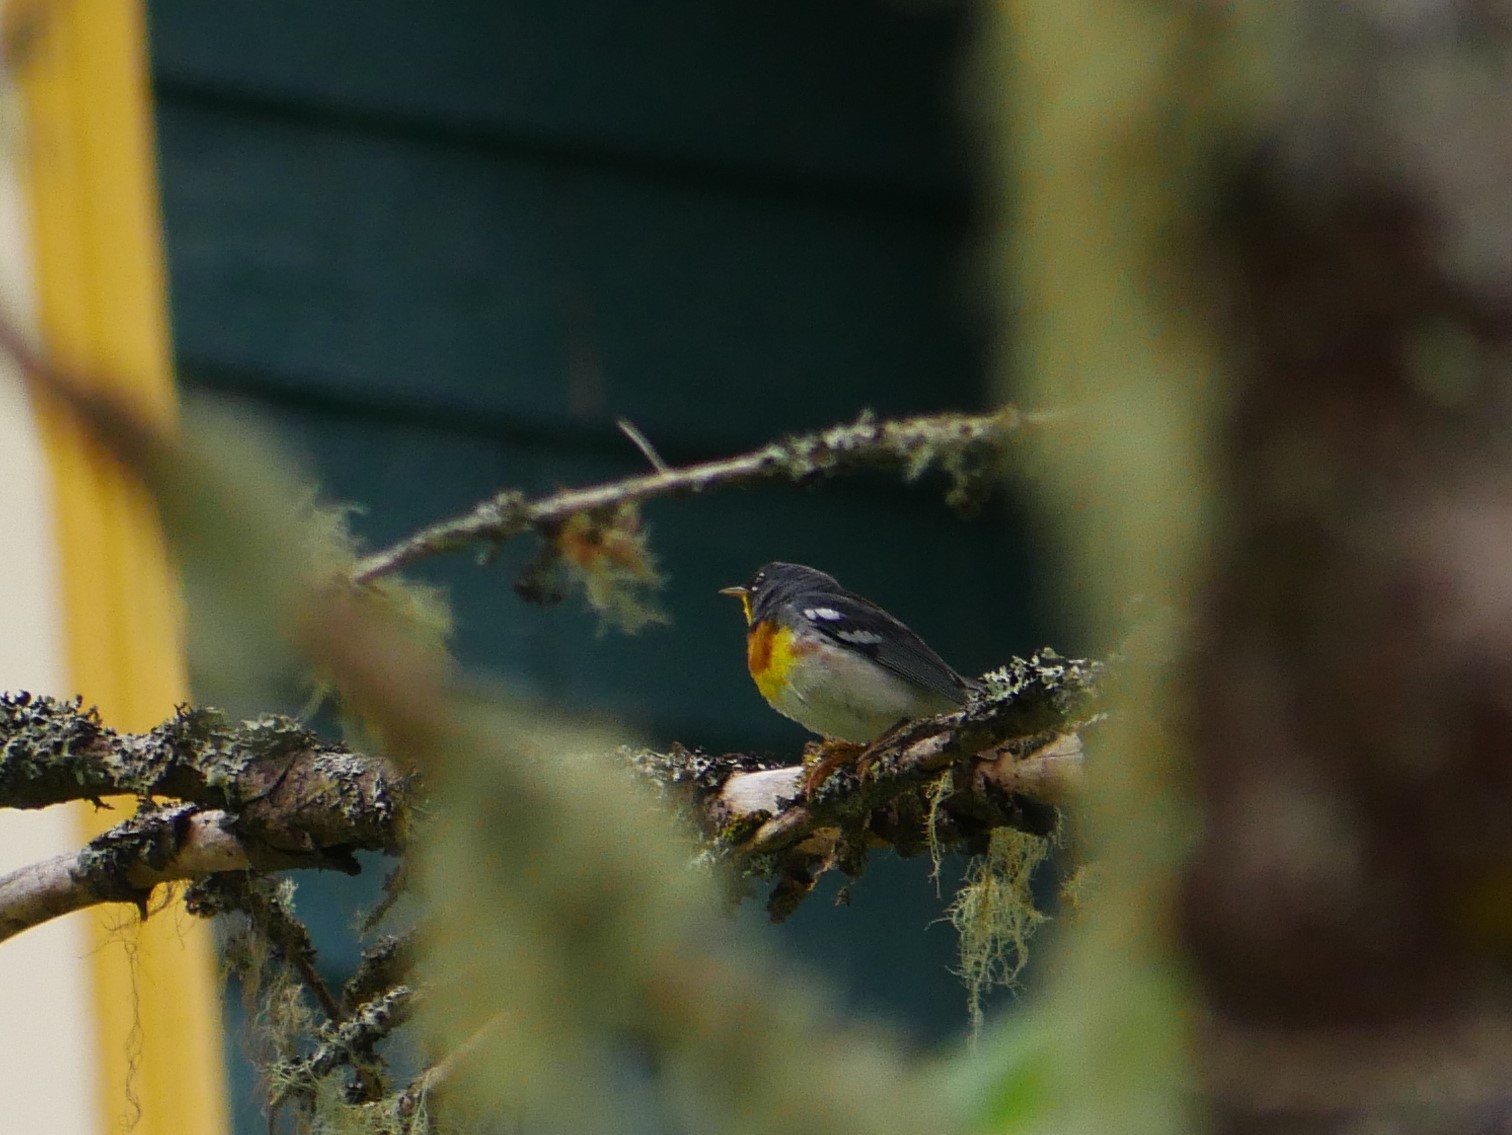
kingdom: Animalia
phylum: Chordata
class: Aves
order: Passeriformes
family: Parulidae
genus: Setophaga
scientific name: Setophaga americana
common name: Northern parula
